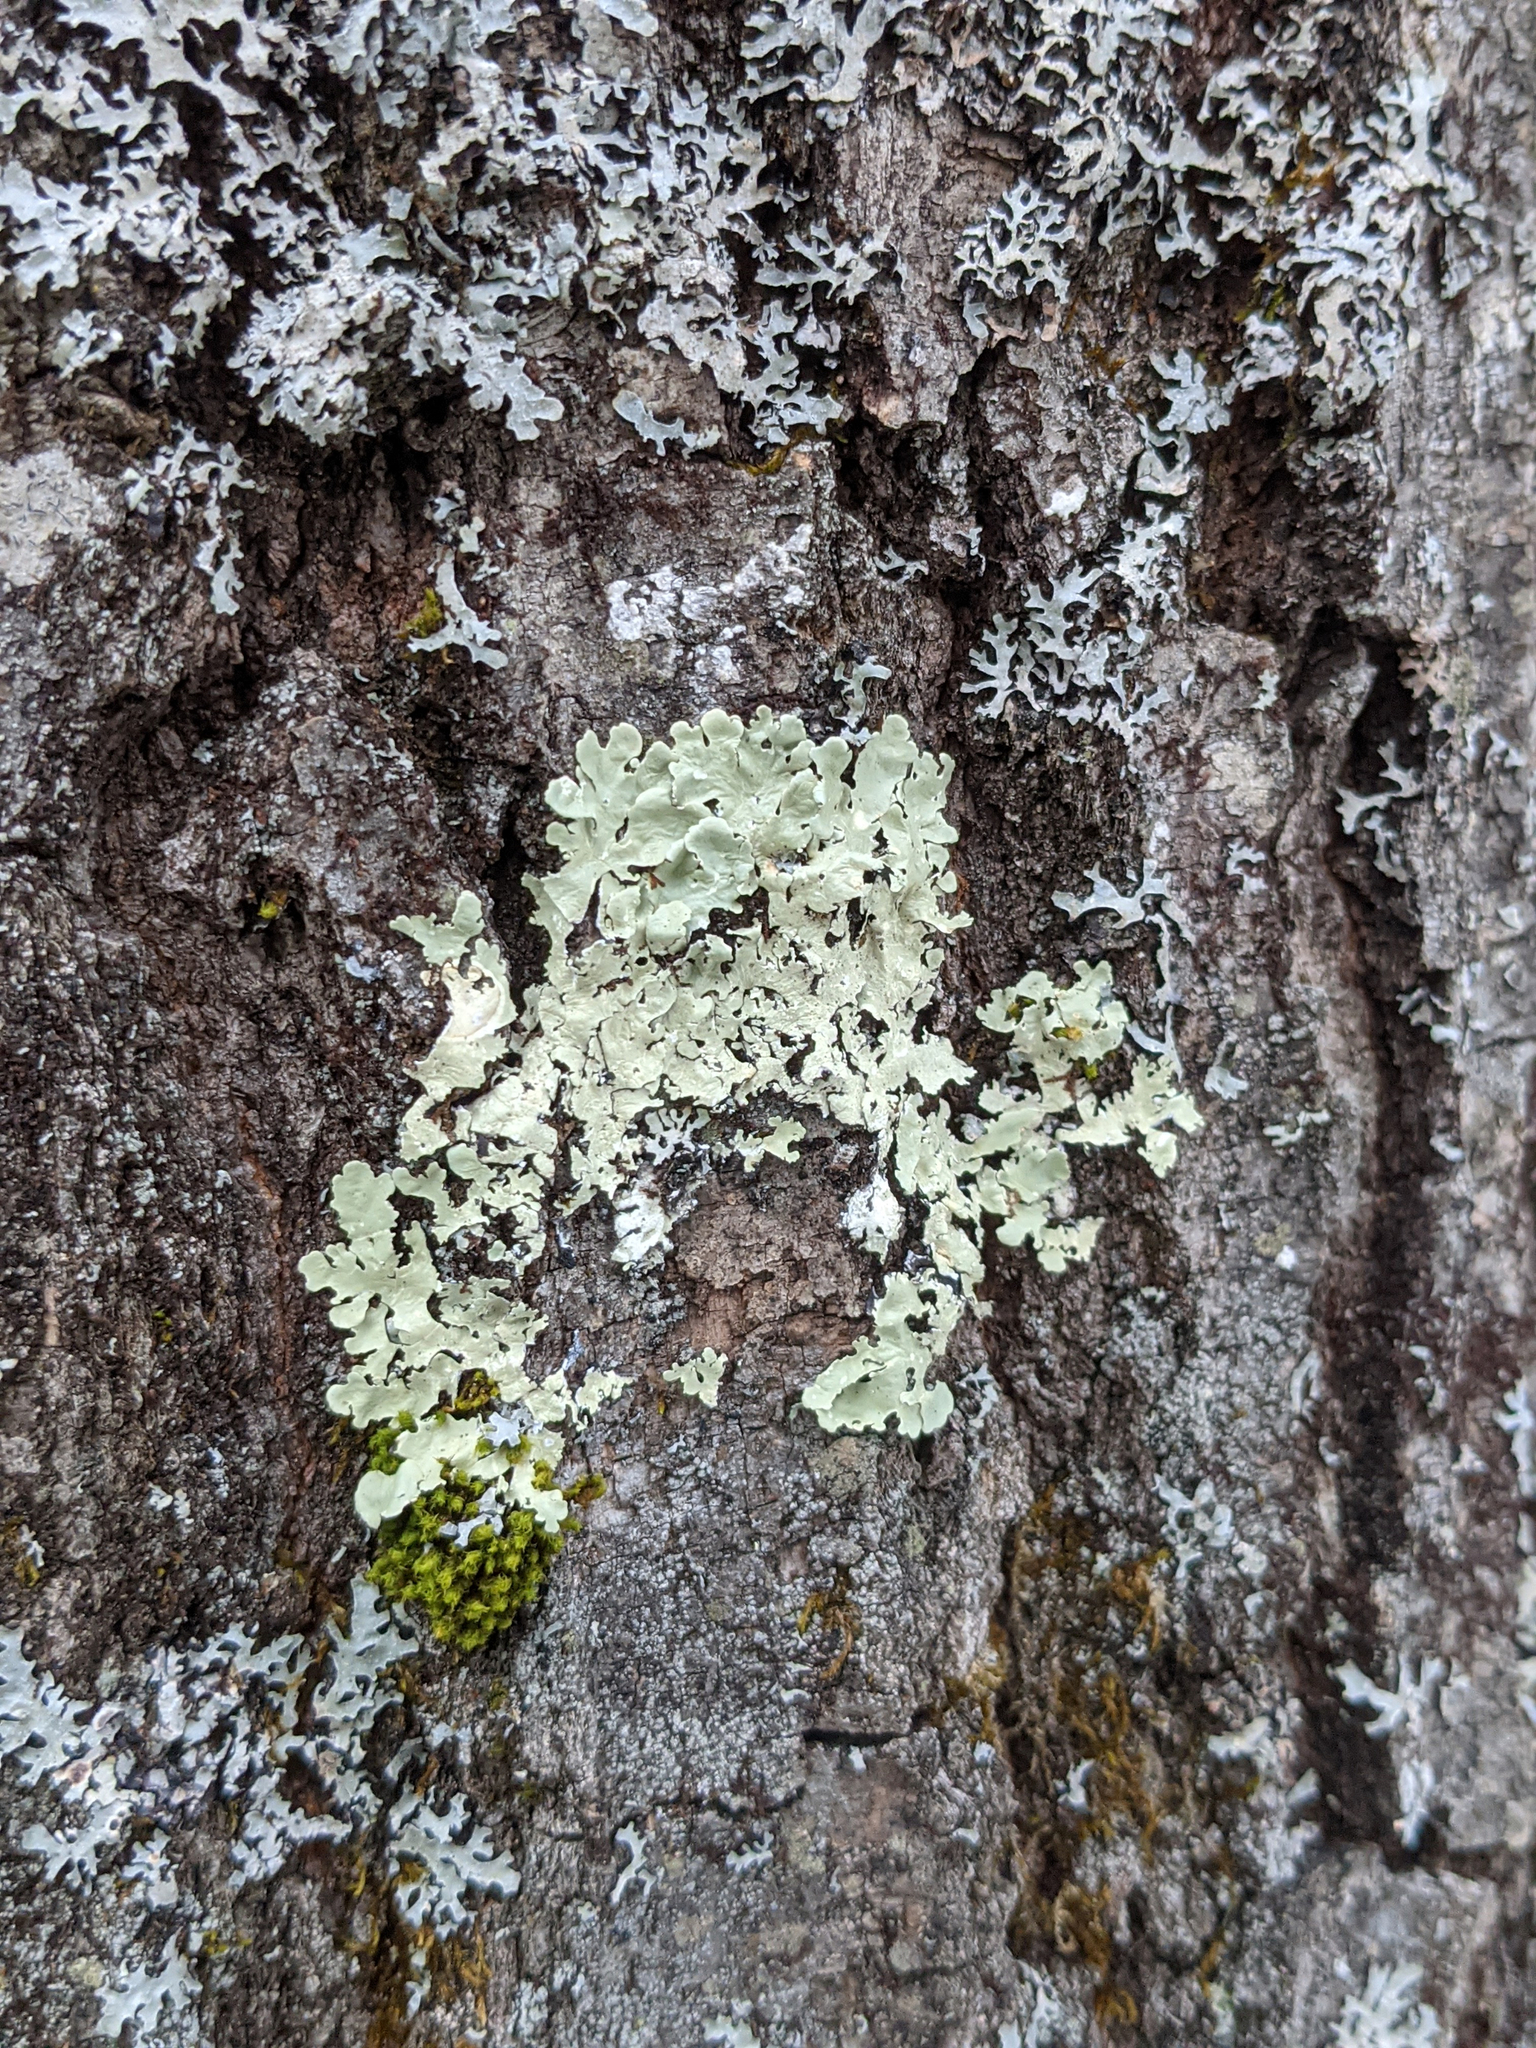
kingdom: Fungi
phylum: Ascomycota
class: Lecanoromycetes
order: Lecanorales
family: Parmeliaceae
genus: Flavoparmelia
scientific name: Flavoparmelia caperata
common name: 40-mile per hour lichen
